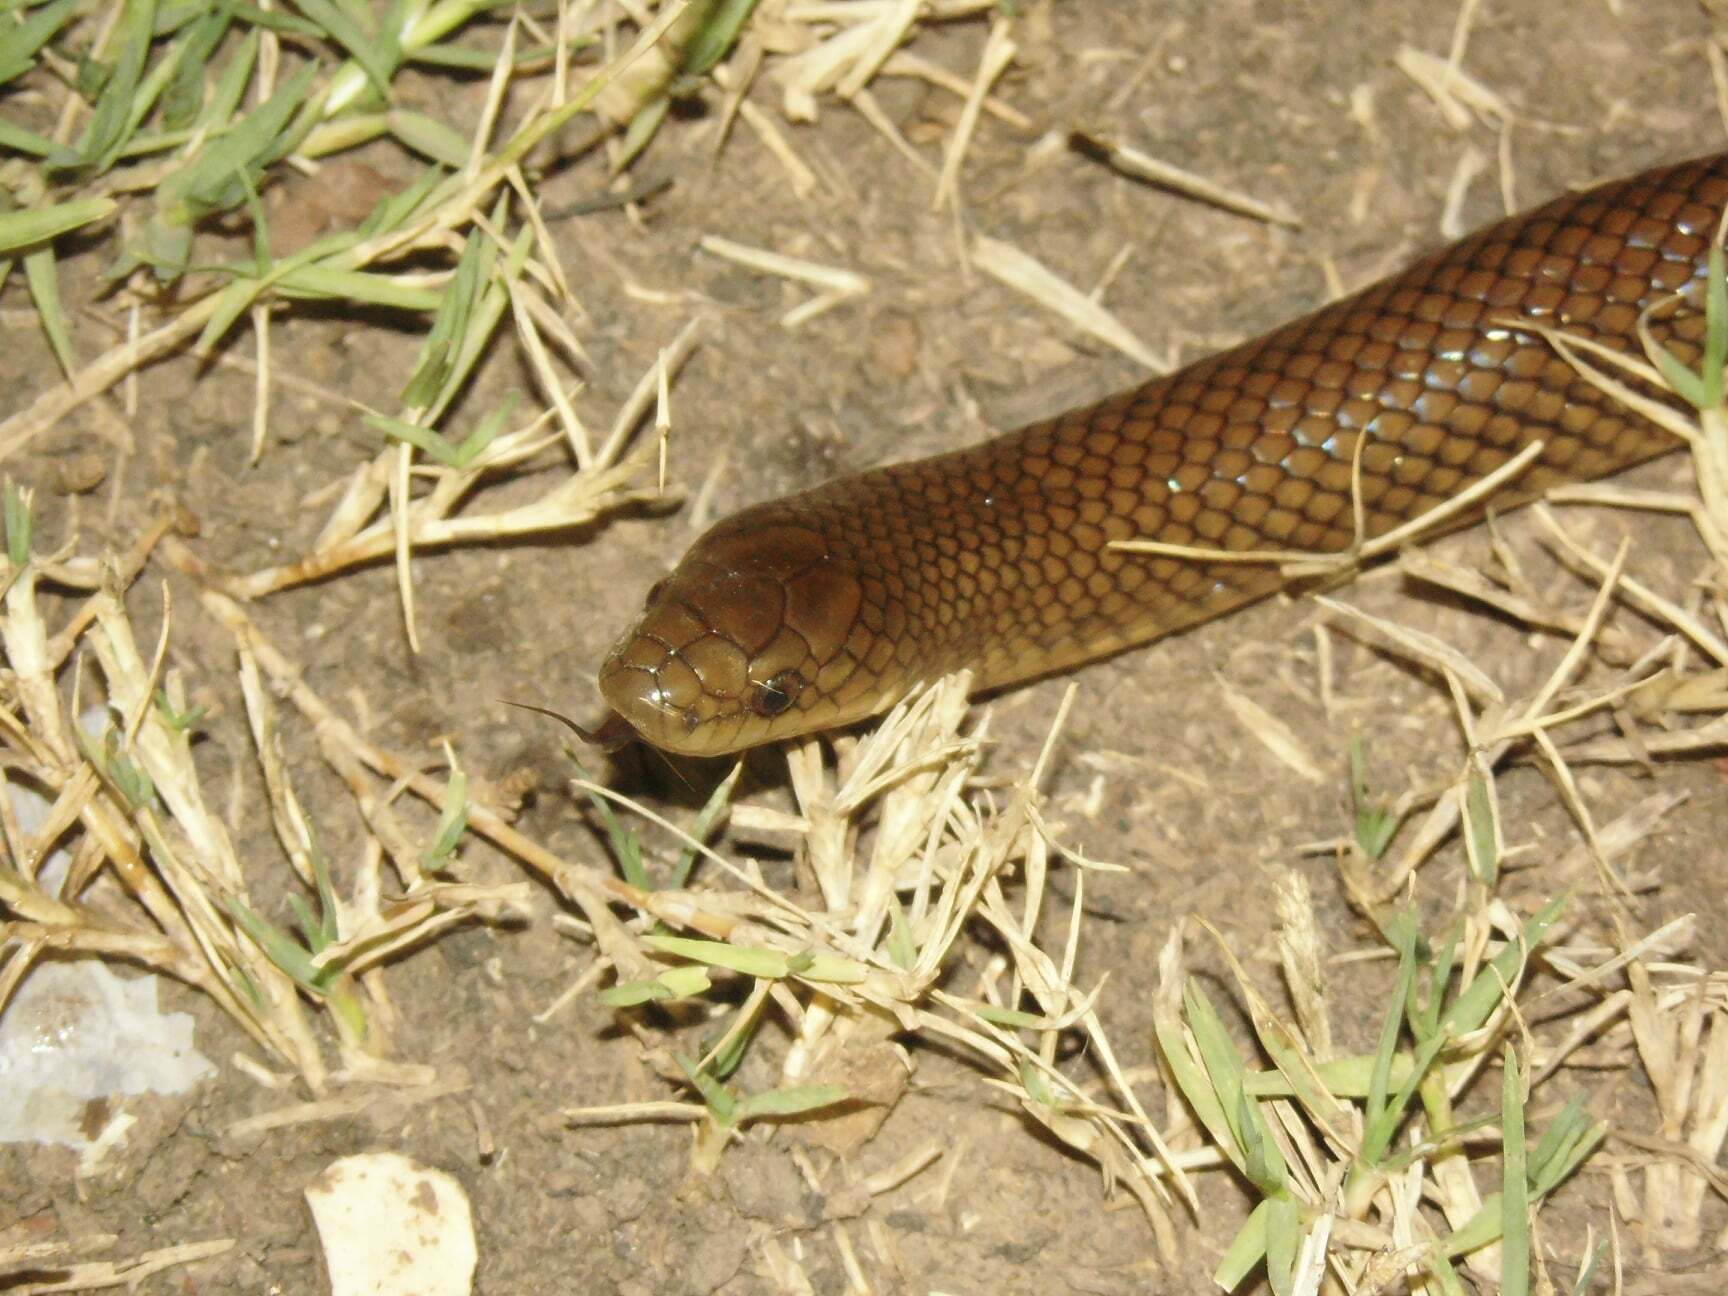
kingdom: Animalia
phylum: Chordata
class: Squamata
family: Colubridae
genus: Paraphimophis
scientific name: Paraphimophis rusticus
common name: Culebra
